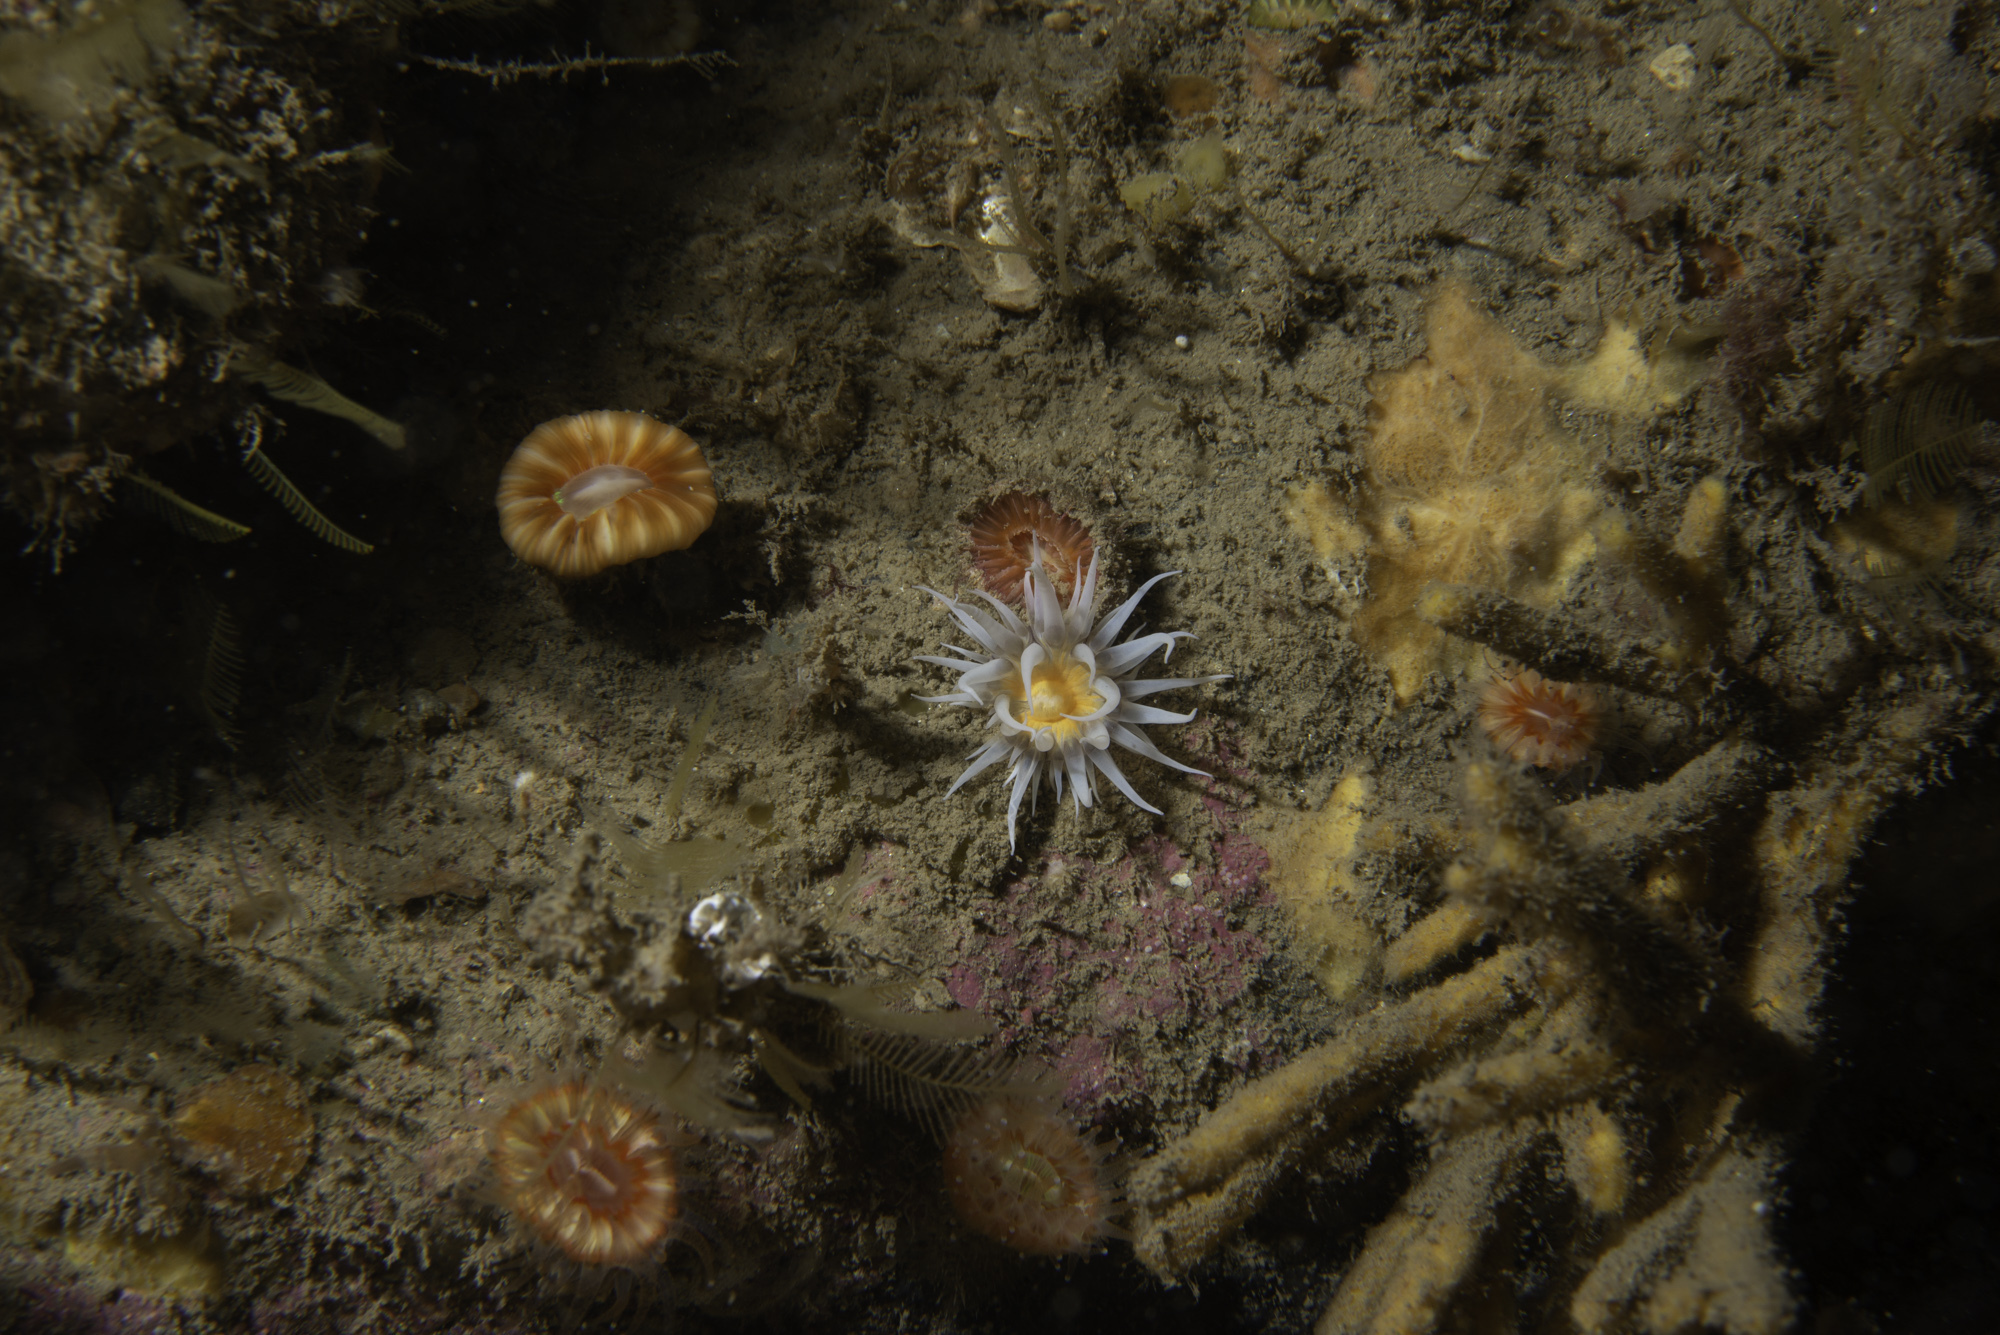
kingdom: Animalia
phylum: Cnidaria
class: Anthozoa
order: Actiniaria
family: Sagartiidae
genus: Actinothoe
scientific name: Actinothoe sphyrodeta
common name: Sandalled anemone
